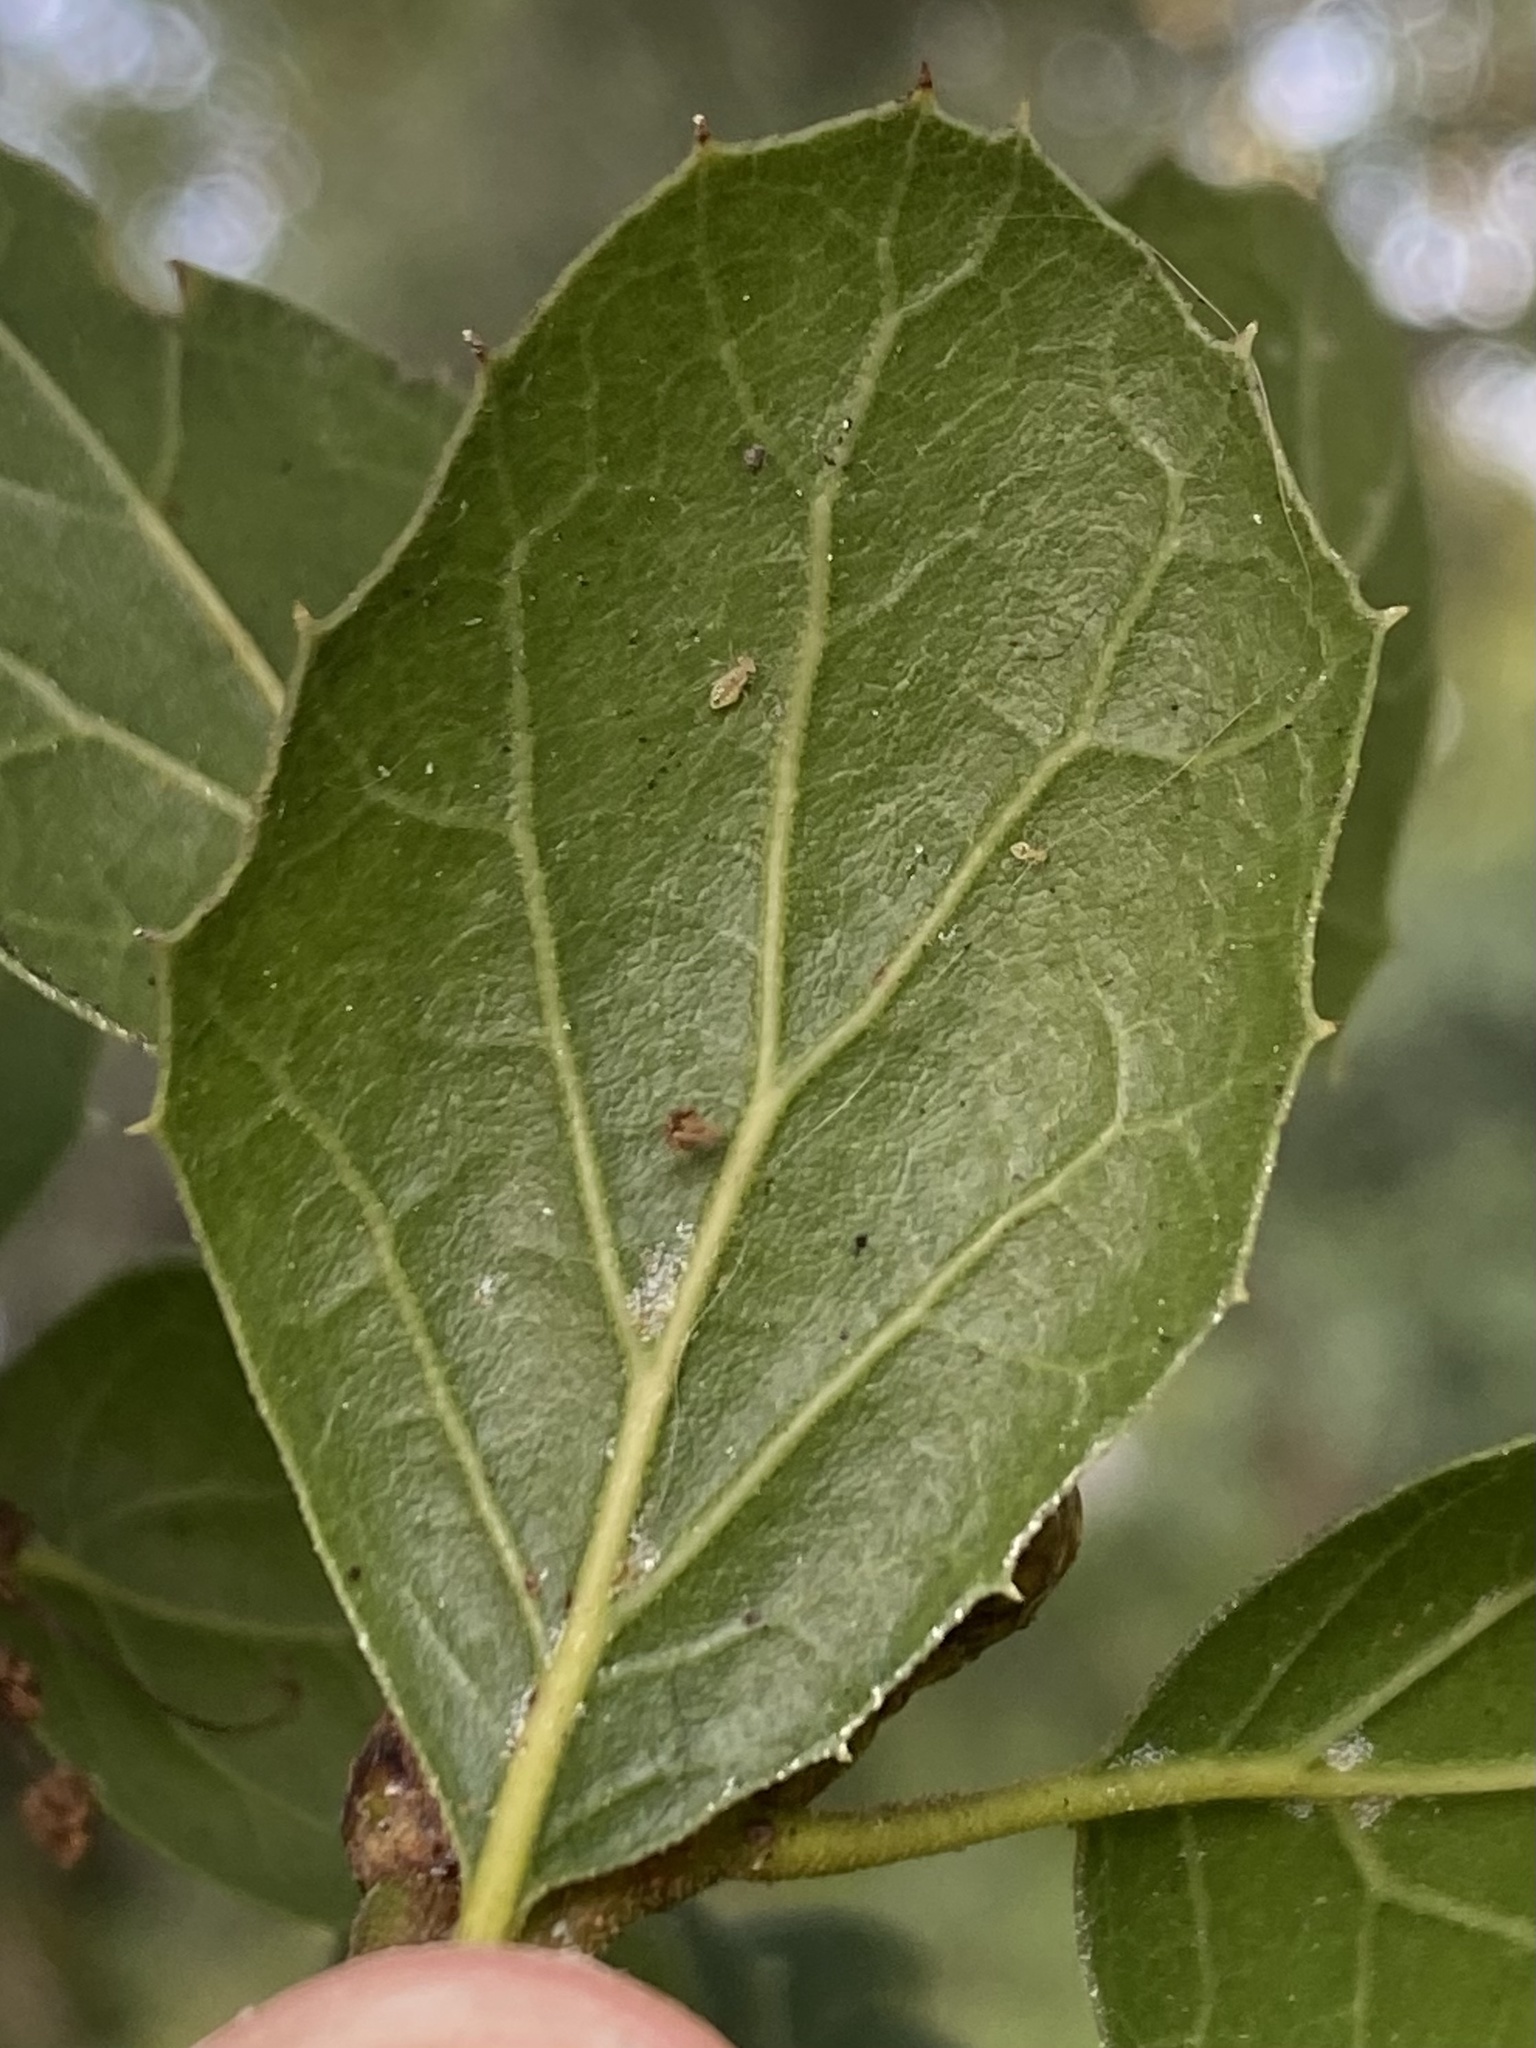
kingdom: Plantae
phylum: Tracheophyta
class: Magnoliopsida
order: Fagales
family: Fagaceae
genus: Quercus
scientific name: Quercus agrifolia
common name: California live oak
